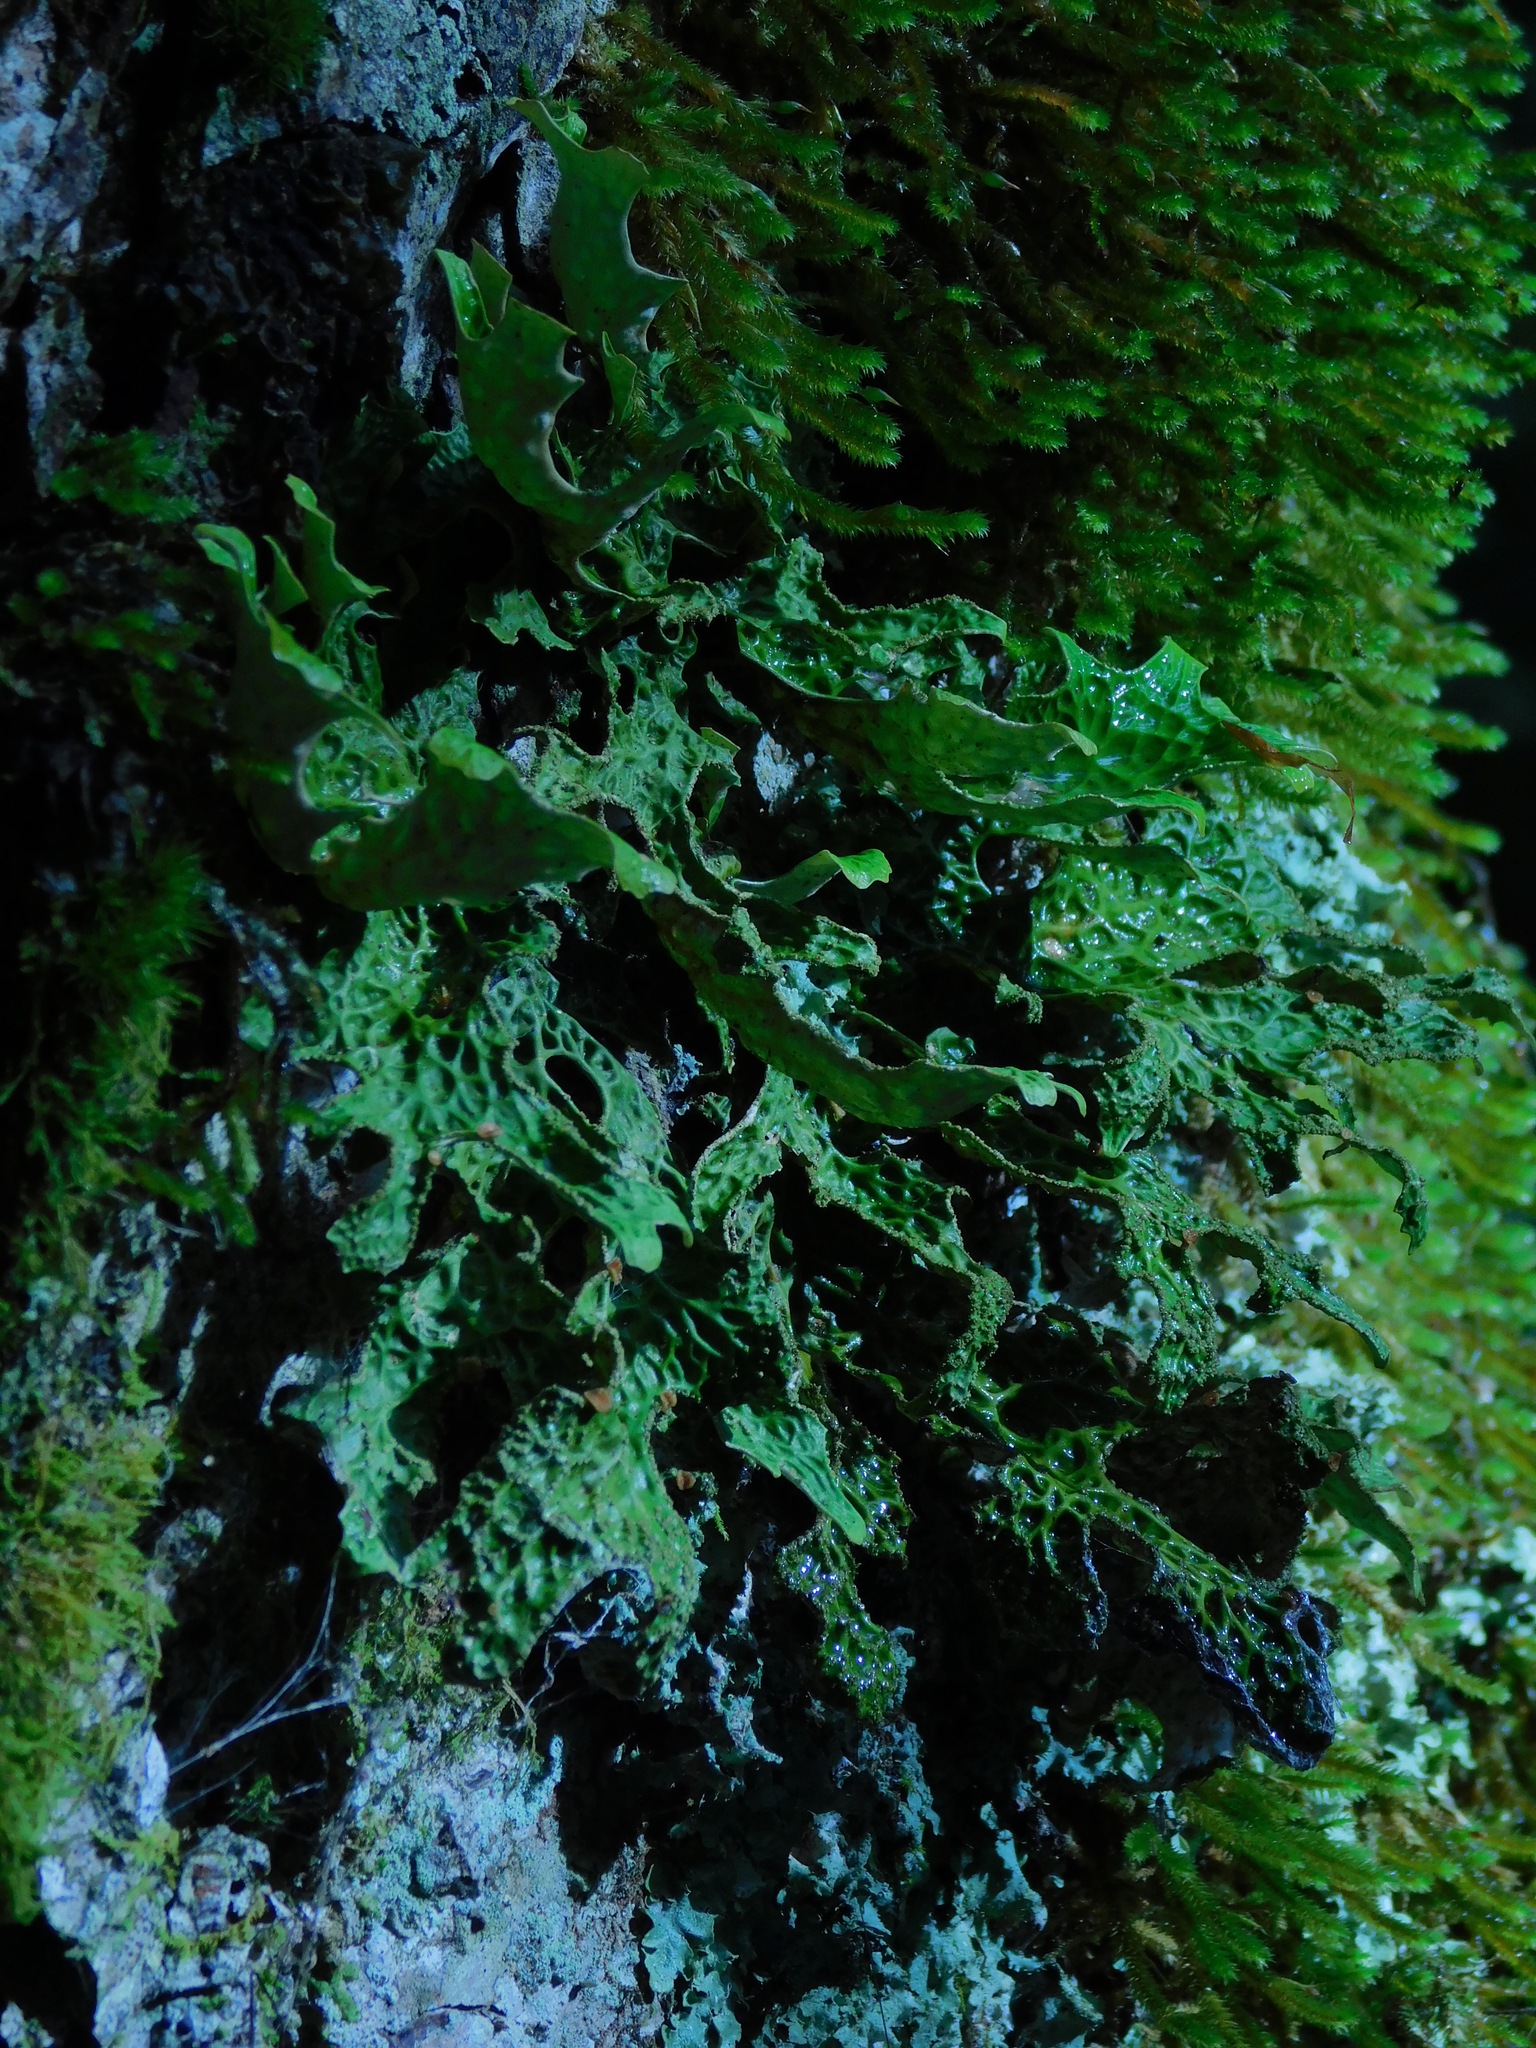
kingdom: Fungi
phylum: Ascomycota
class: Lecanoromycetes
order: Peltigerales
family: Lobariaceae
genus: Lobaria
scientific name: Lobaria pulmonaria
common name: Lungwort
